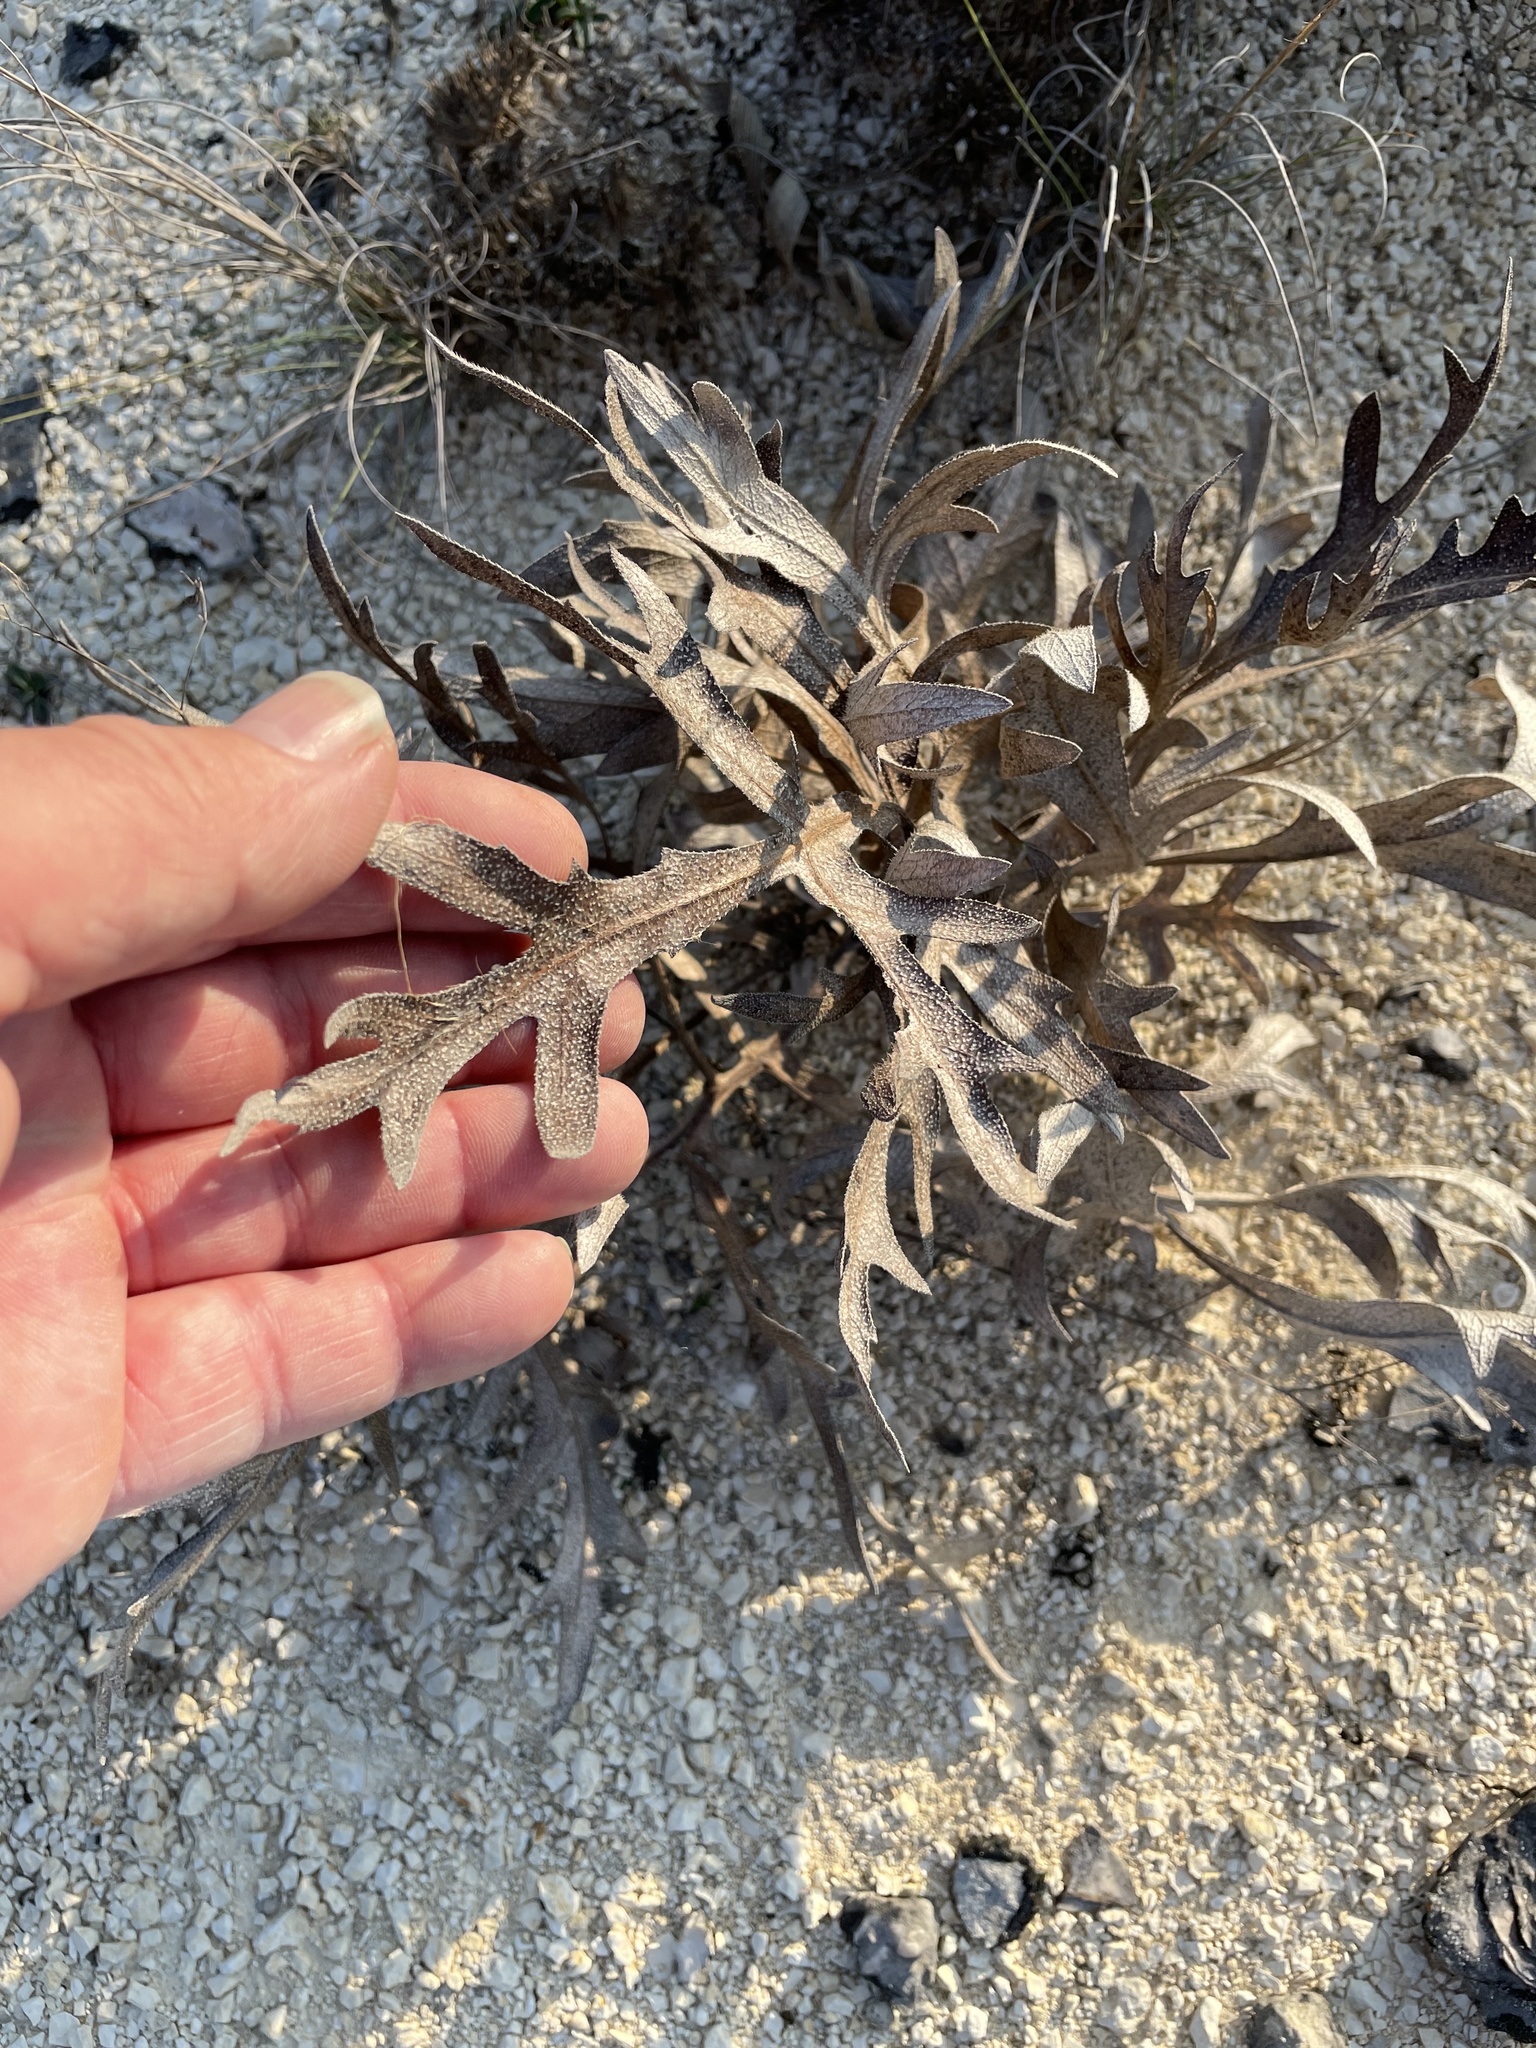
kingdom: Plantae
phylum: Tracheophyta
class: Magnoliopsida
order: Asterales
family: Asteraceae
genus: Silphium
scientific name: Silphium albiflorum
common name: White rosinweed
